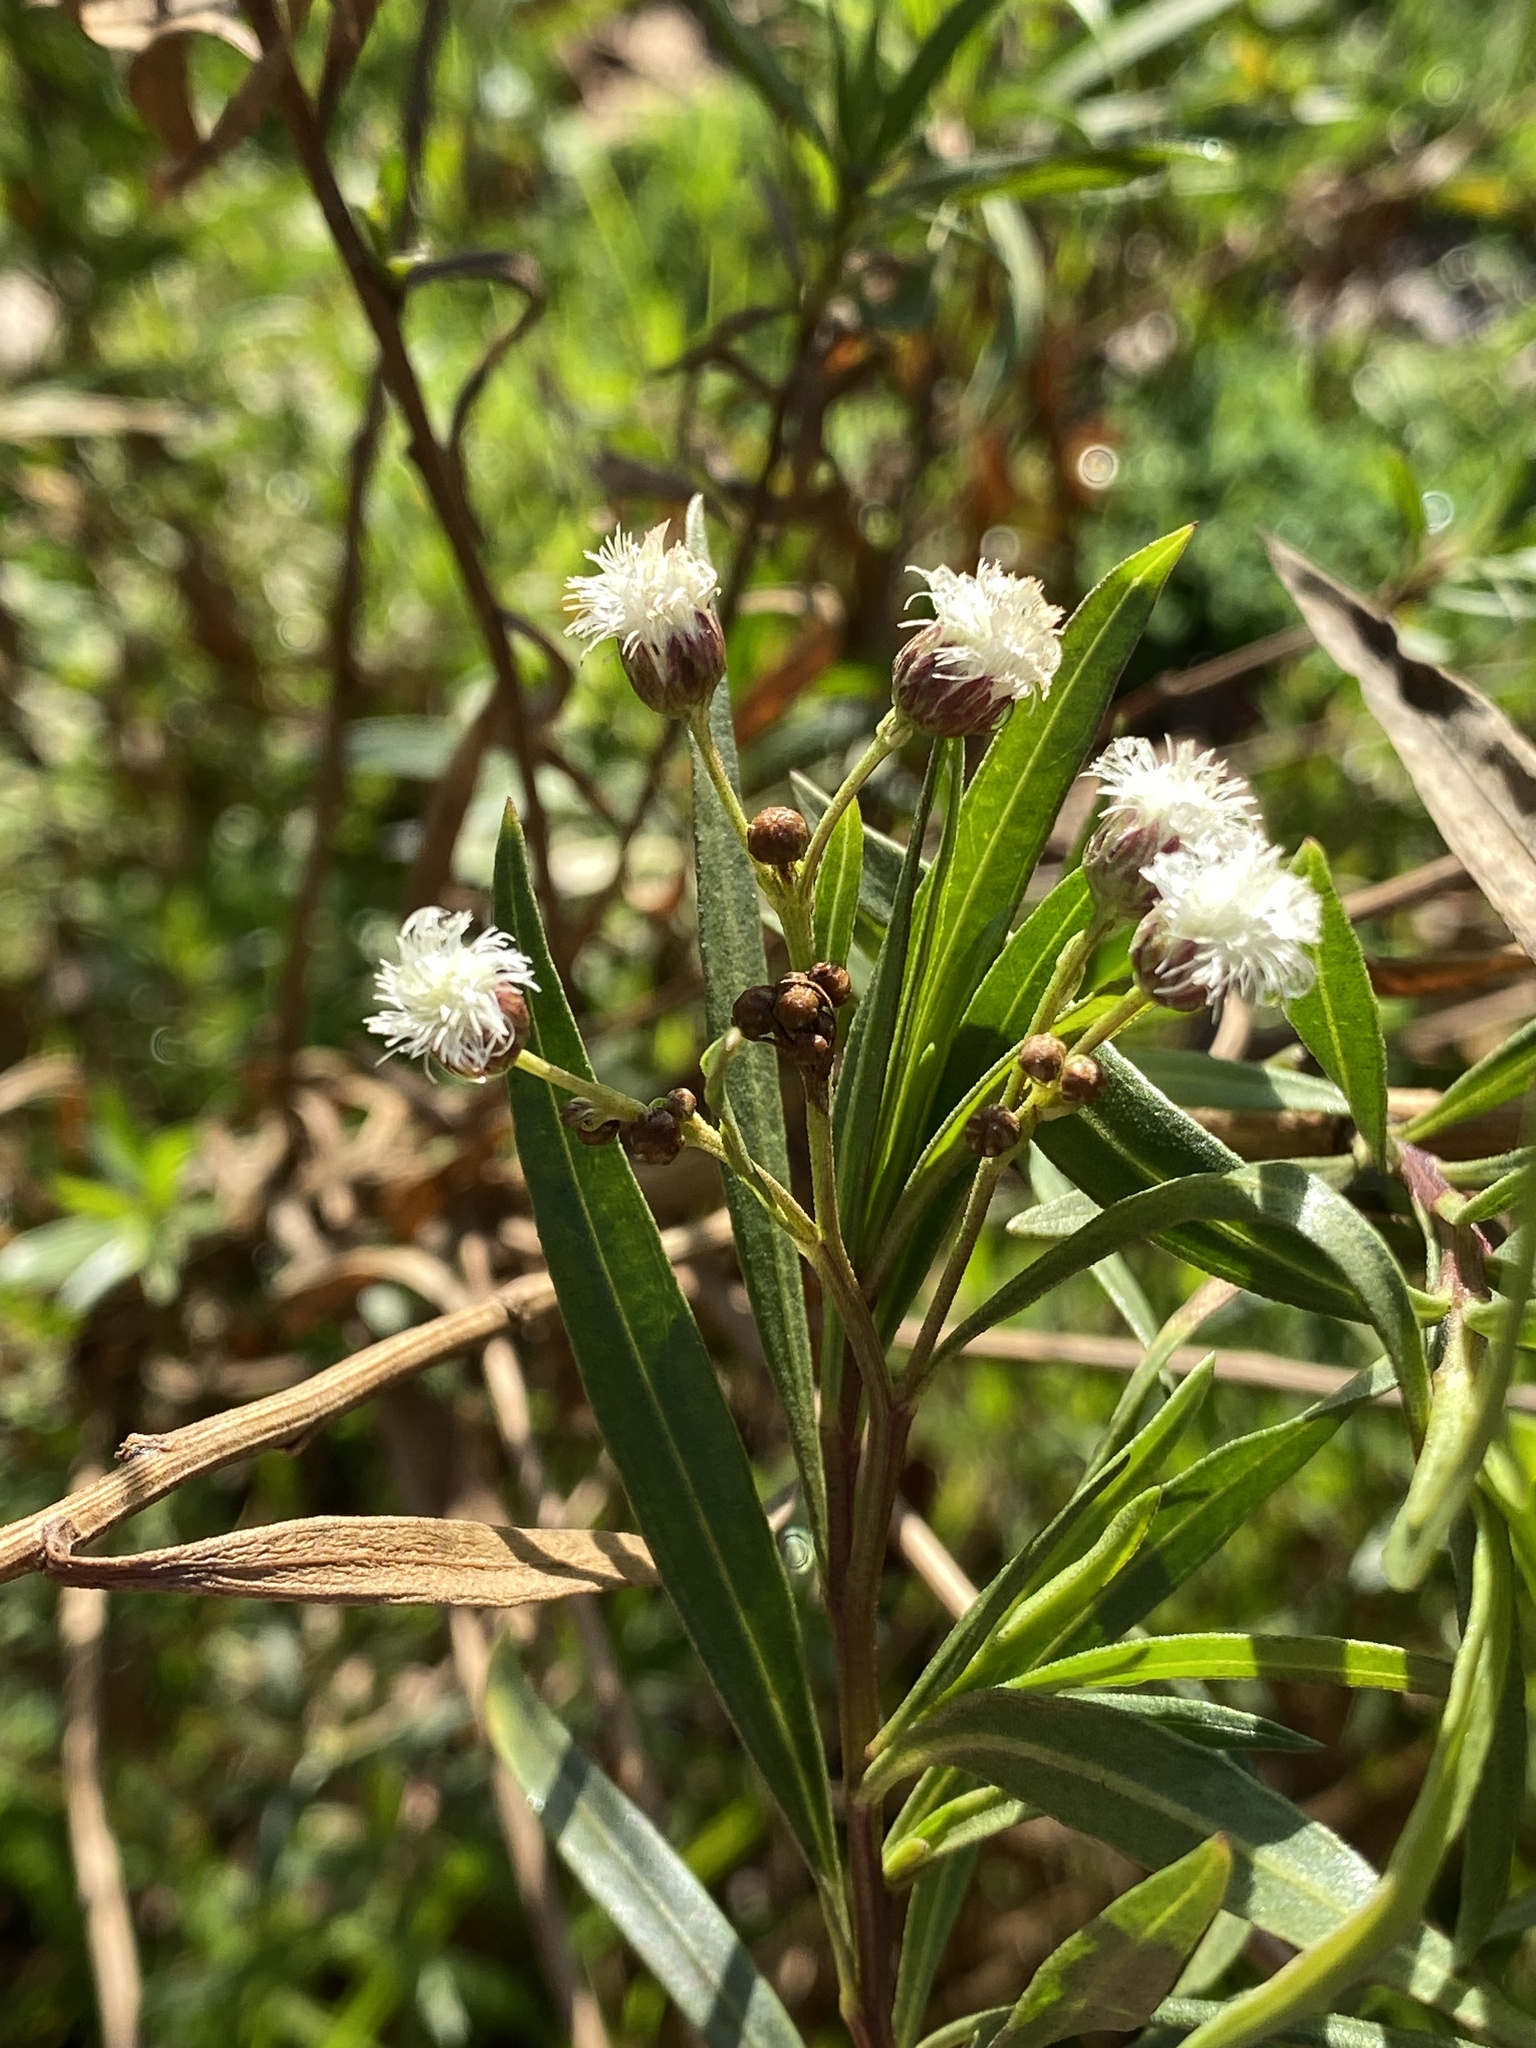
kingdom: Plantae
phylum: Tracheophyta
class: Magnoliopsida
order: Asterales
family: Asteraceae
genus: Baccharis
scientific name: Baccharis salicifolia
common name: Sticky baccharis
